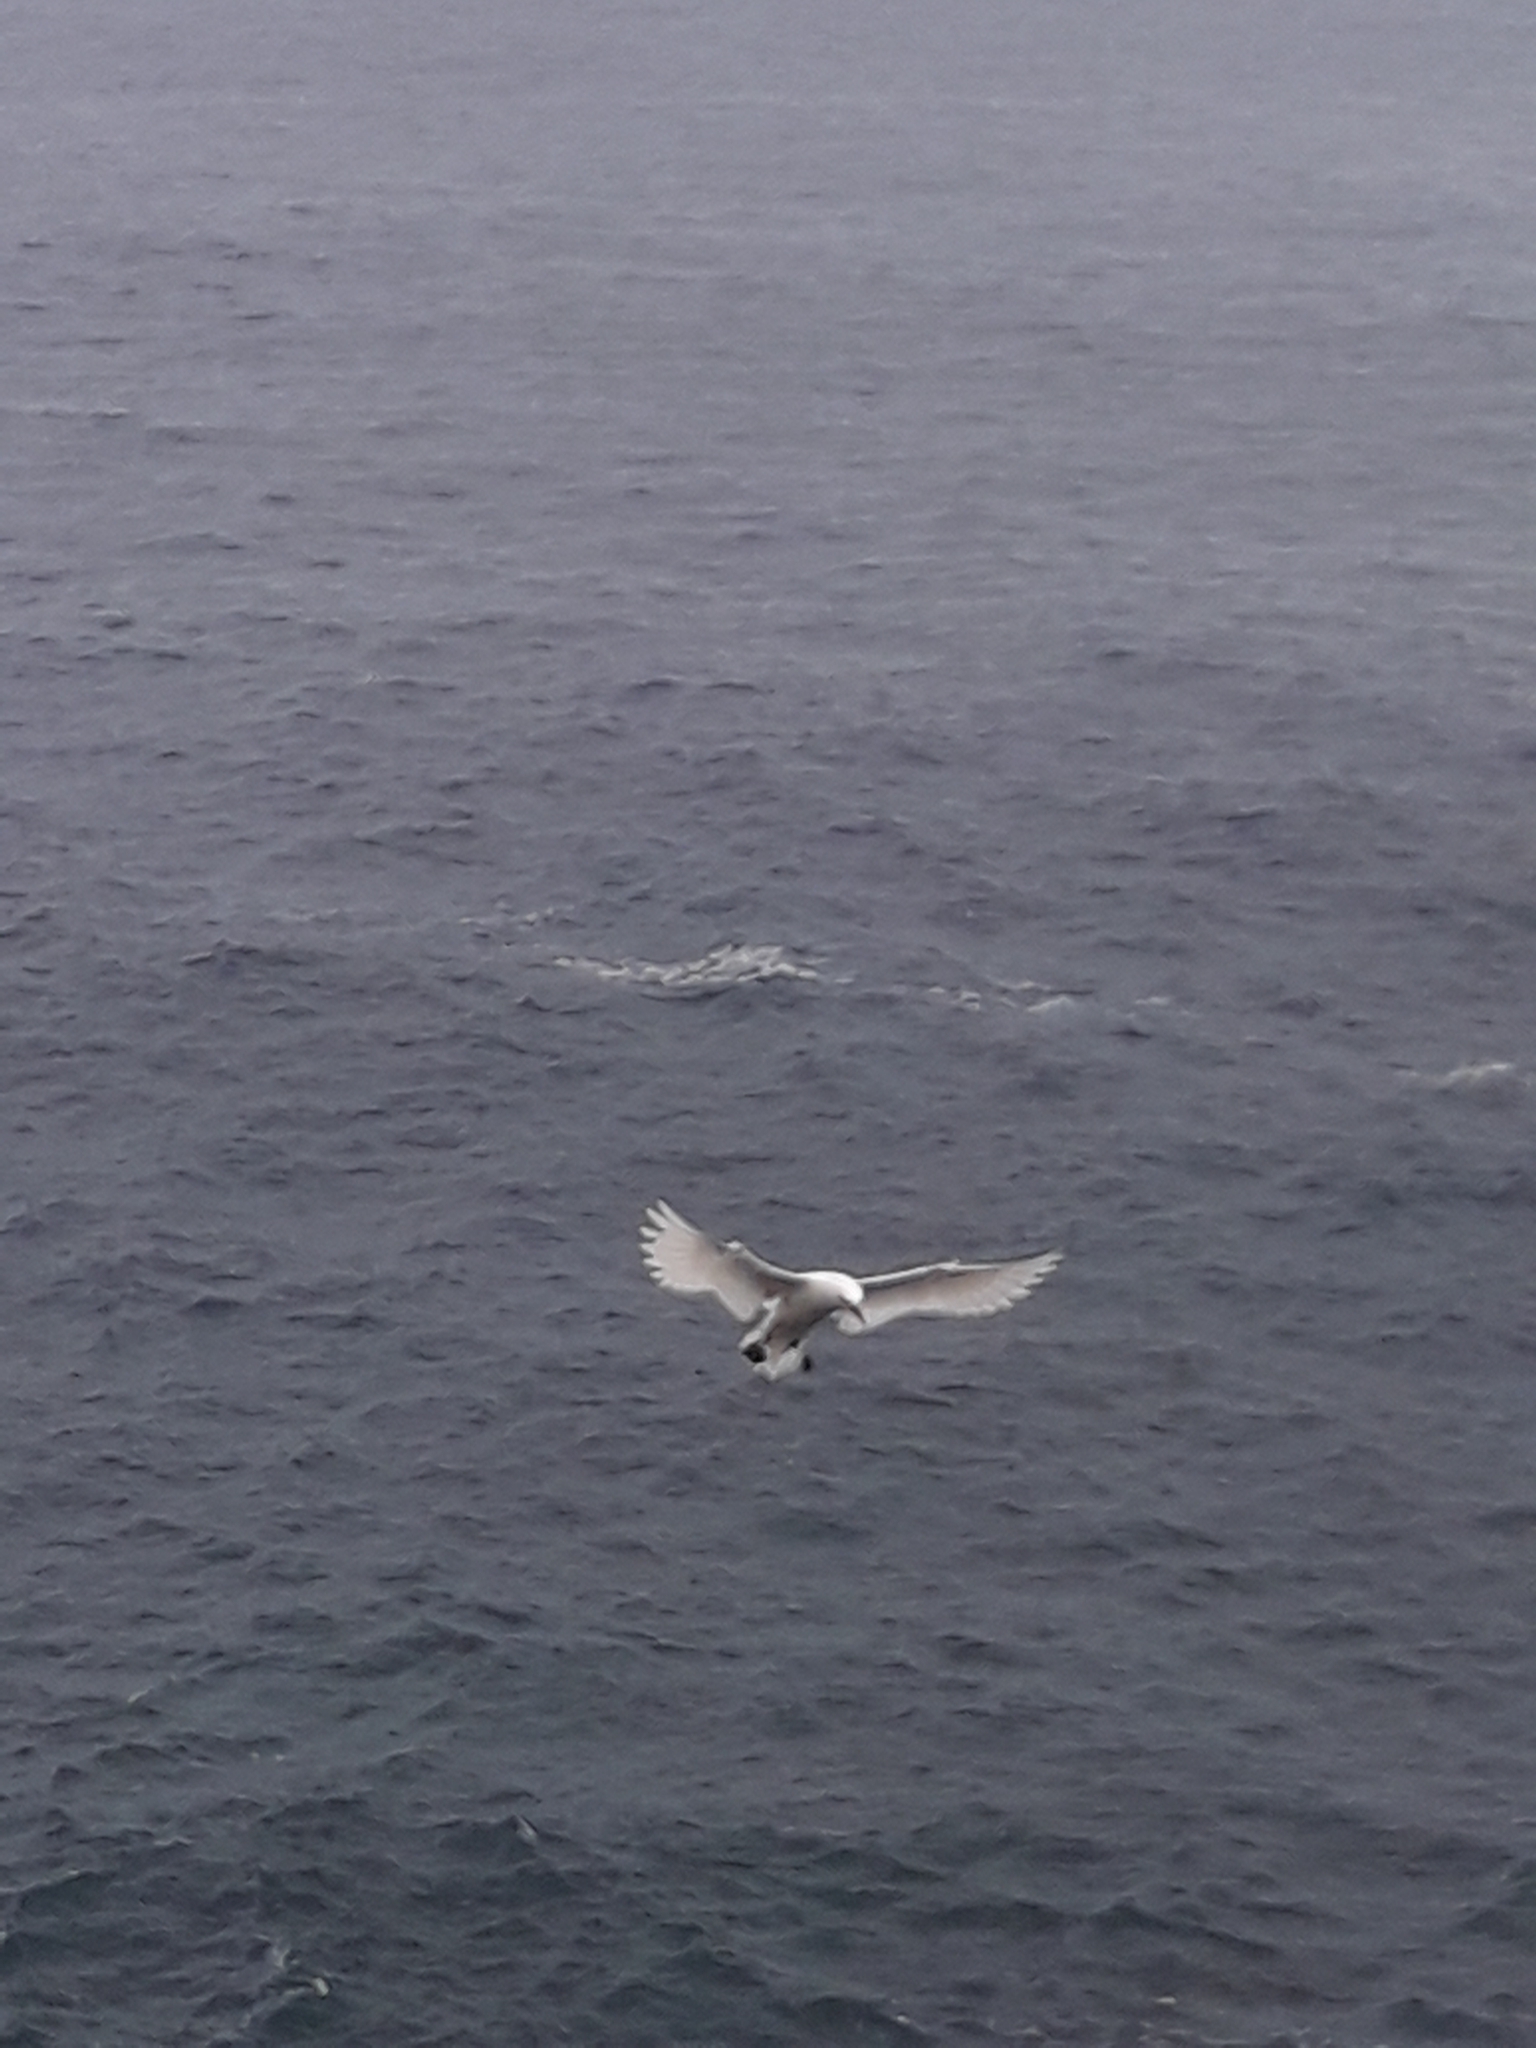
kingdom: Animalia
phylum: Chordata
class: Aves
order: Phaethontiformes
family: Phaethontidae
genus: Phaethon
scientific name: Phaethon rubricauda
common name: Red-tailed tropicbird
